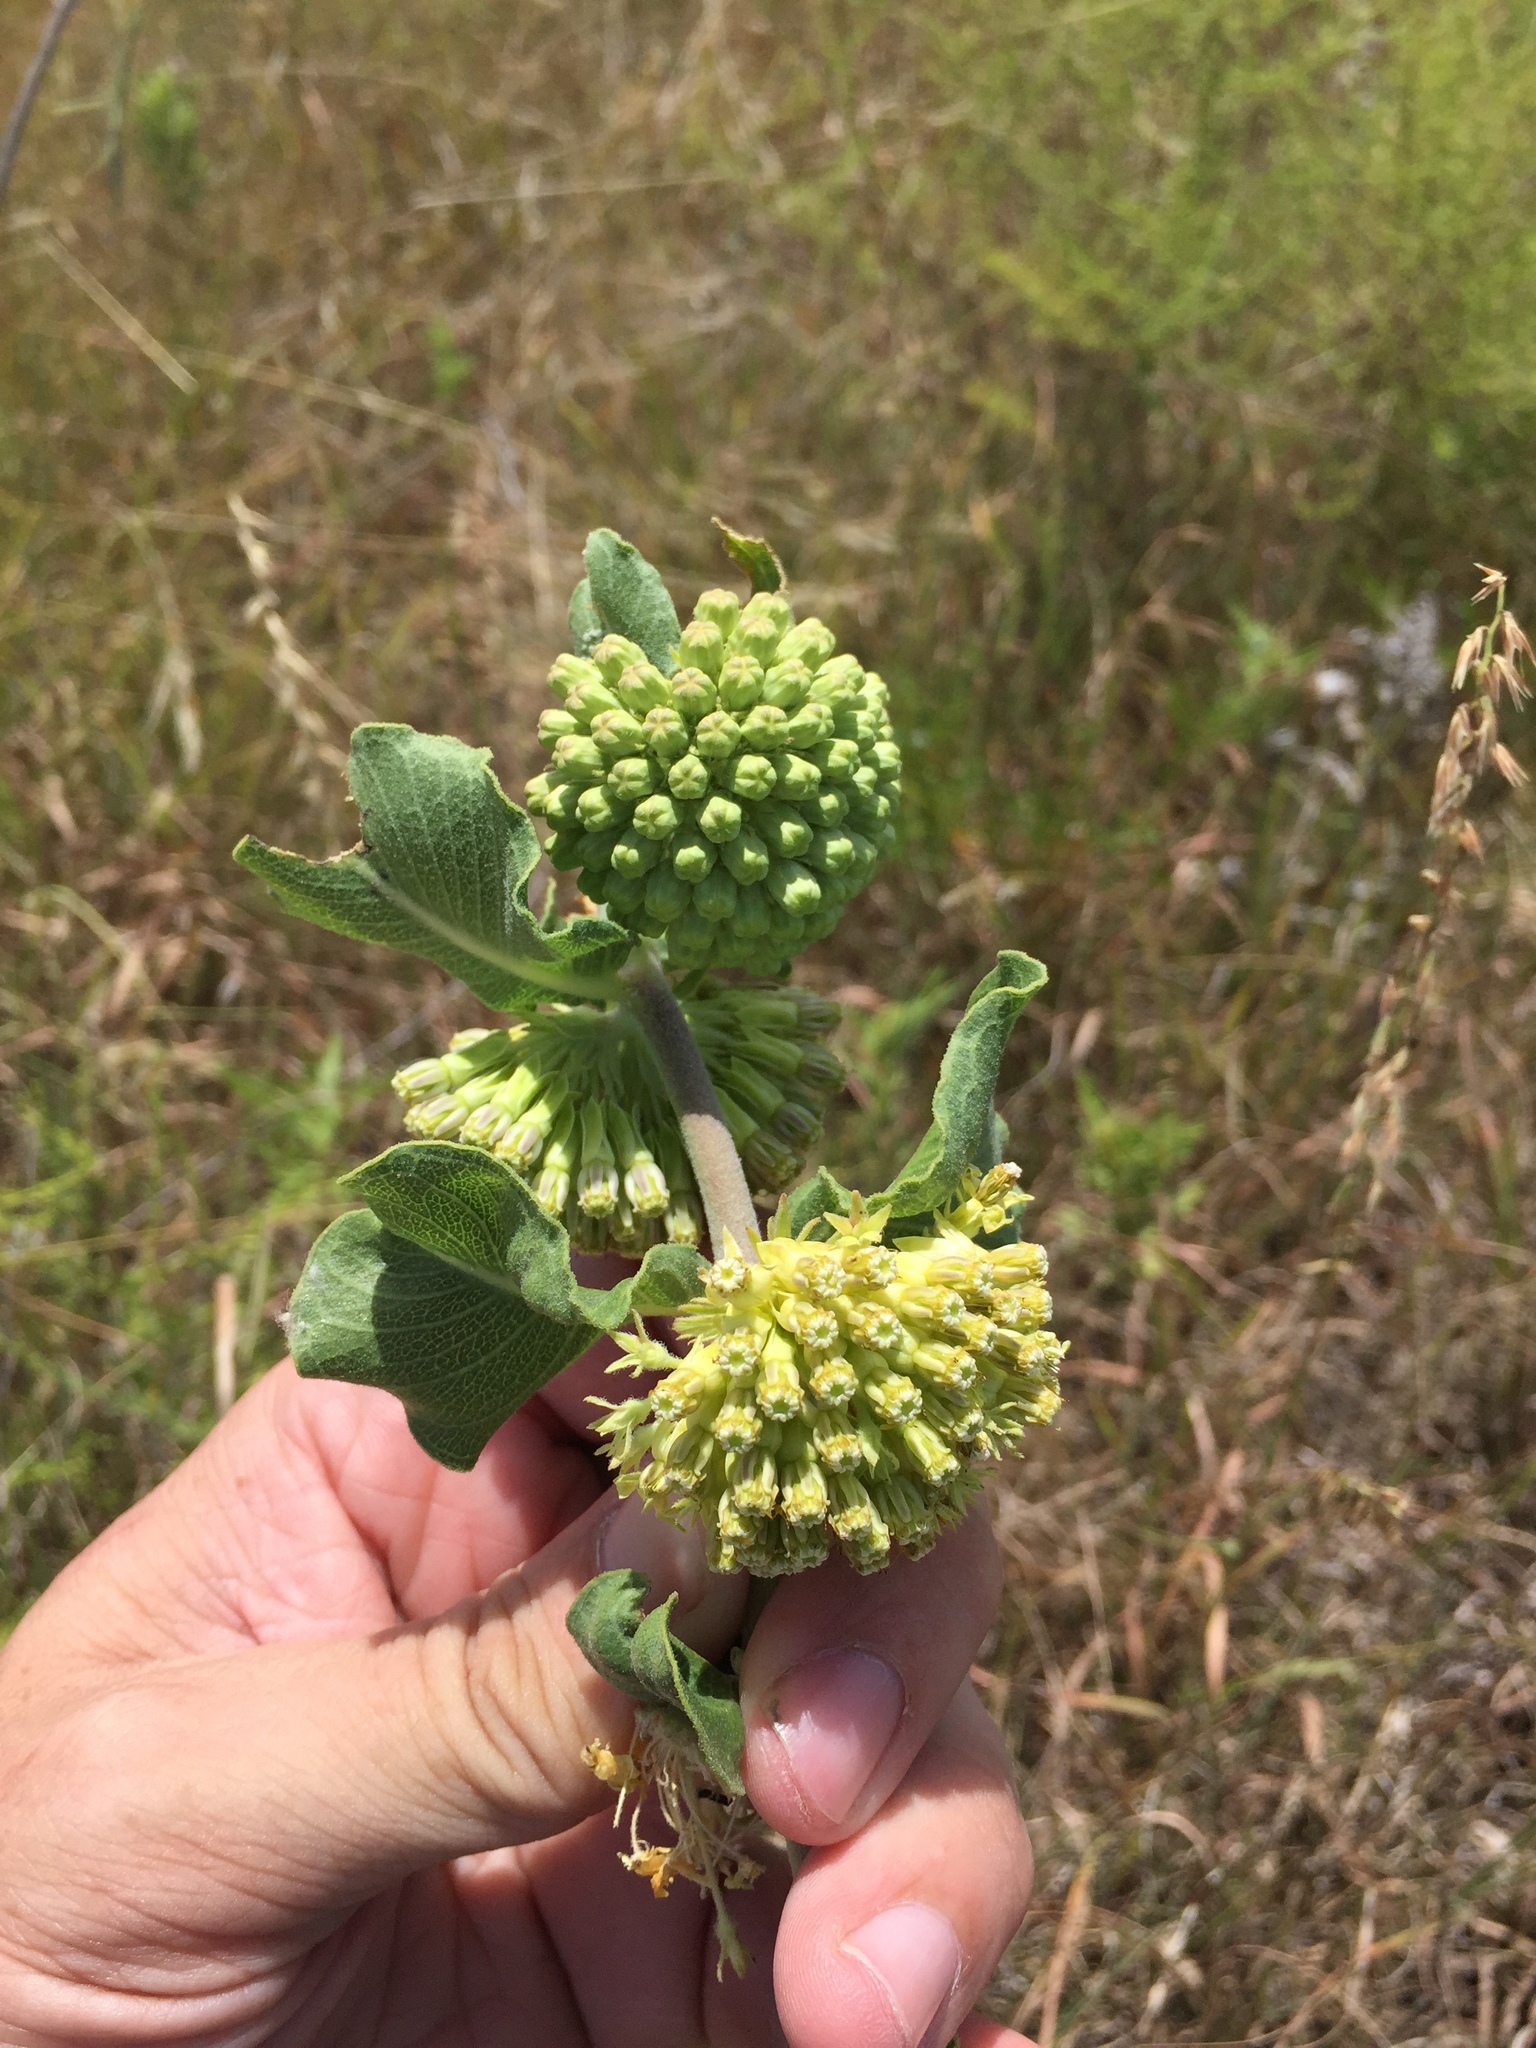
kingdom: Plantae
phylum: Tracheophyta
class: Magnoliopsida
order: Gentianales
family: Apocynaceae
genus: Asclepias
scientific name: Asclepias viridiflora
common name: Green comet milkweed
